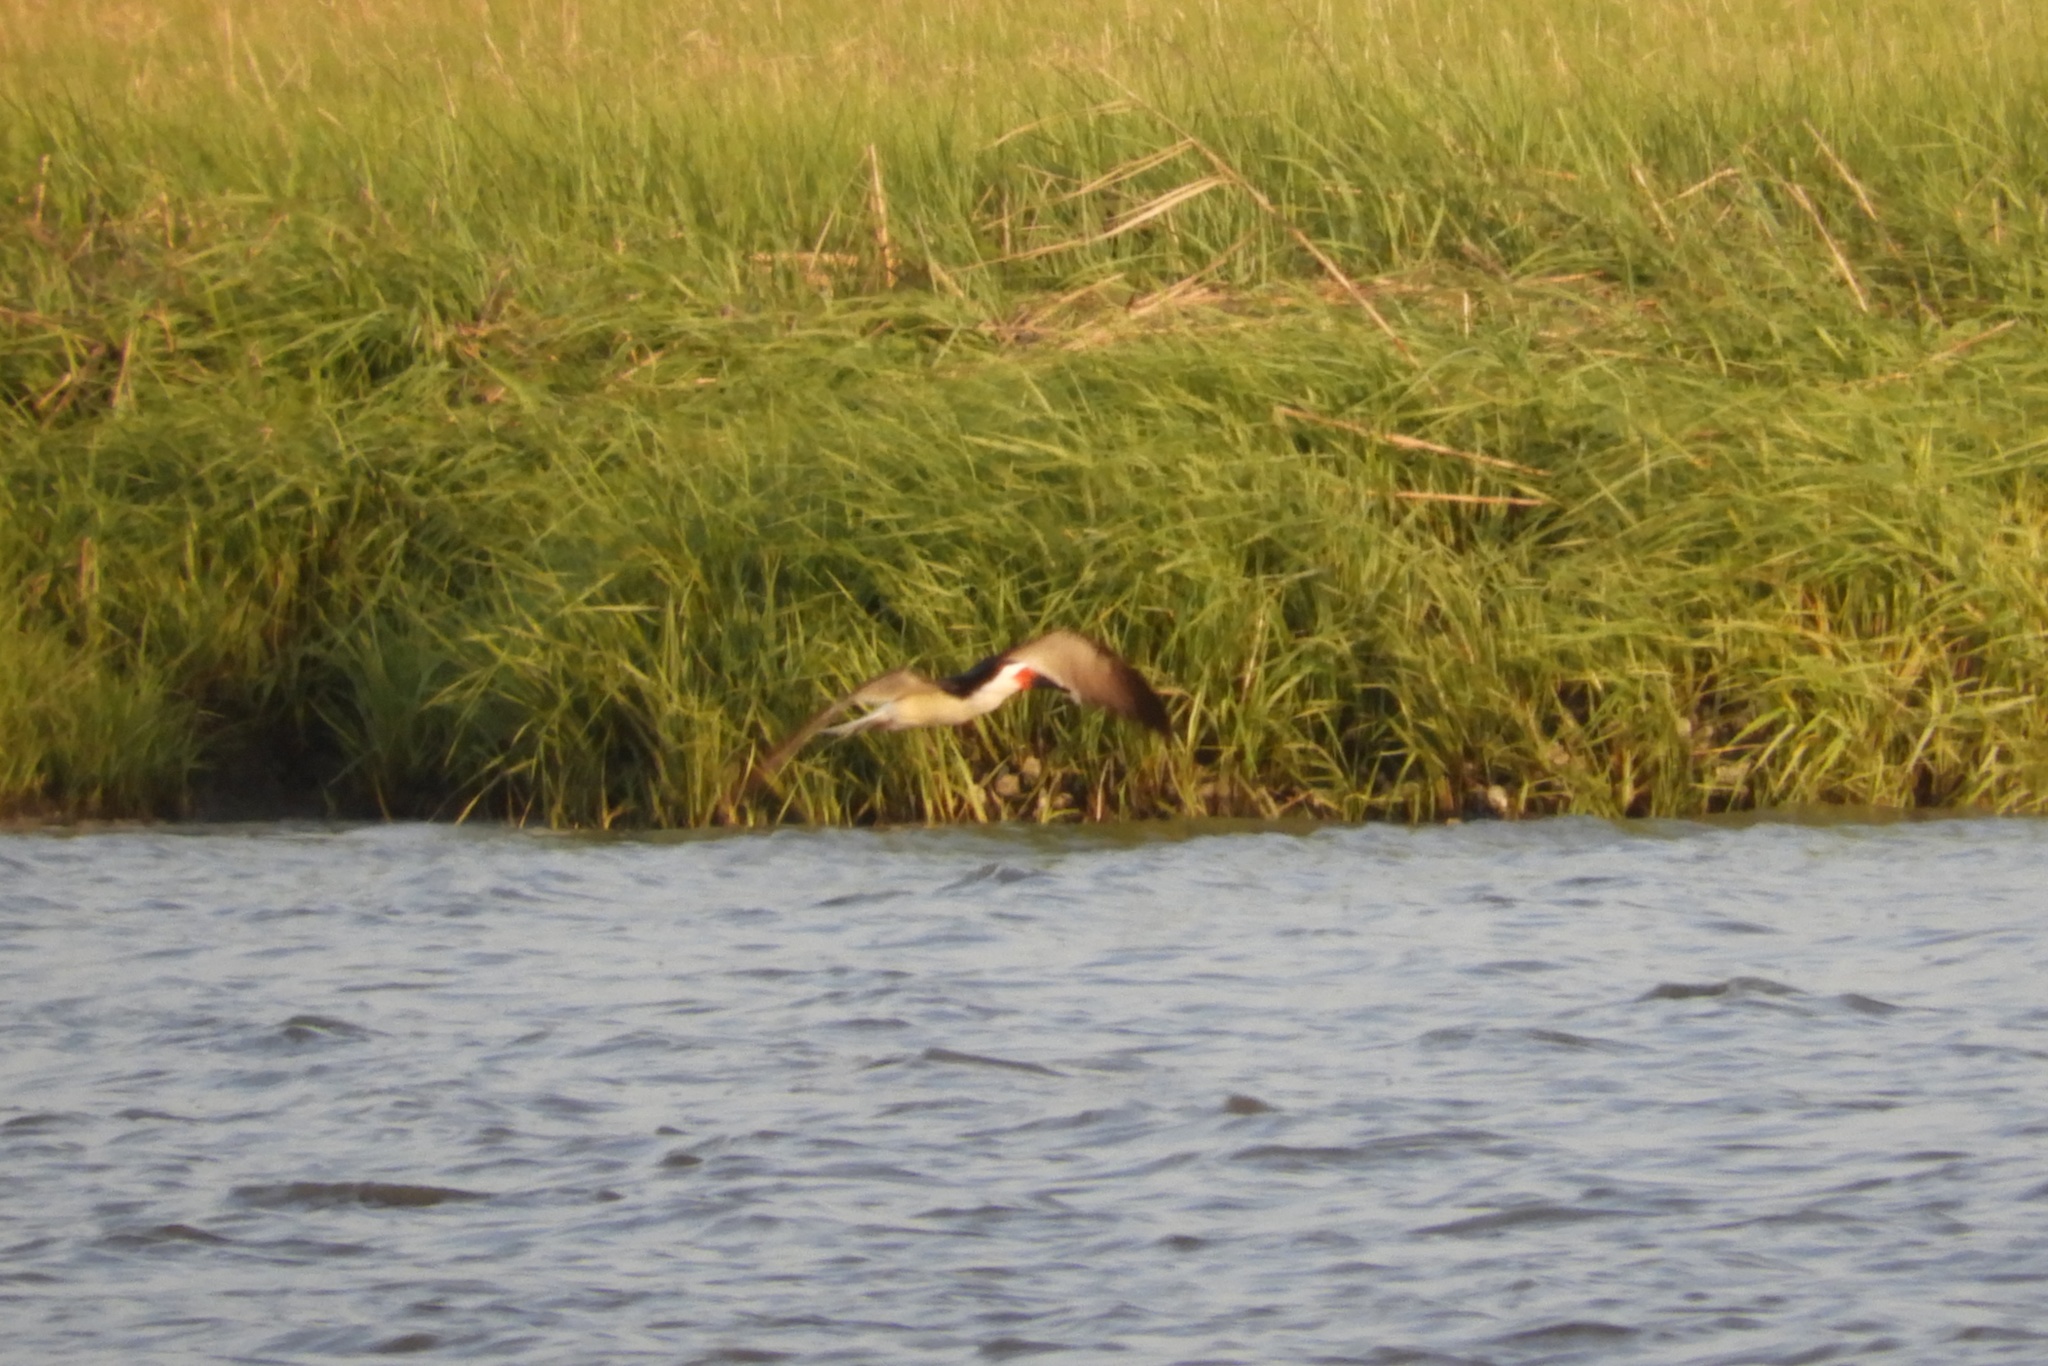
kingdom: Animalia
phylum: Chordata
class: Aves
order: Charadriiformes
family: Laridae
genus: Rynchops
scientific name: Rynchops niger
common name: Black skimmer
